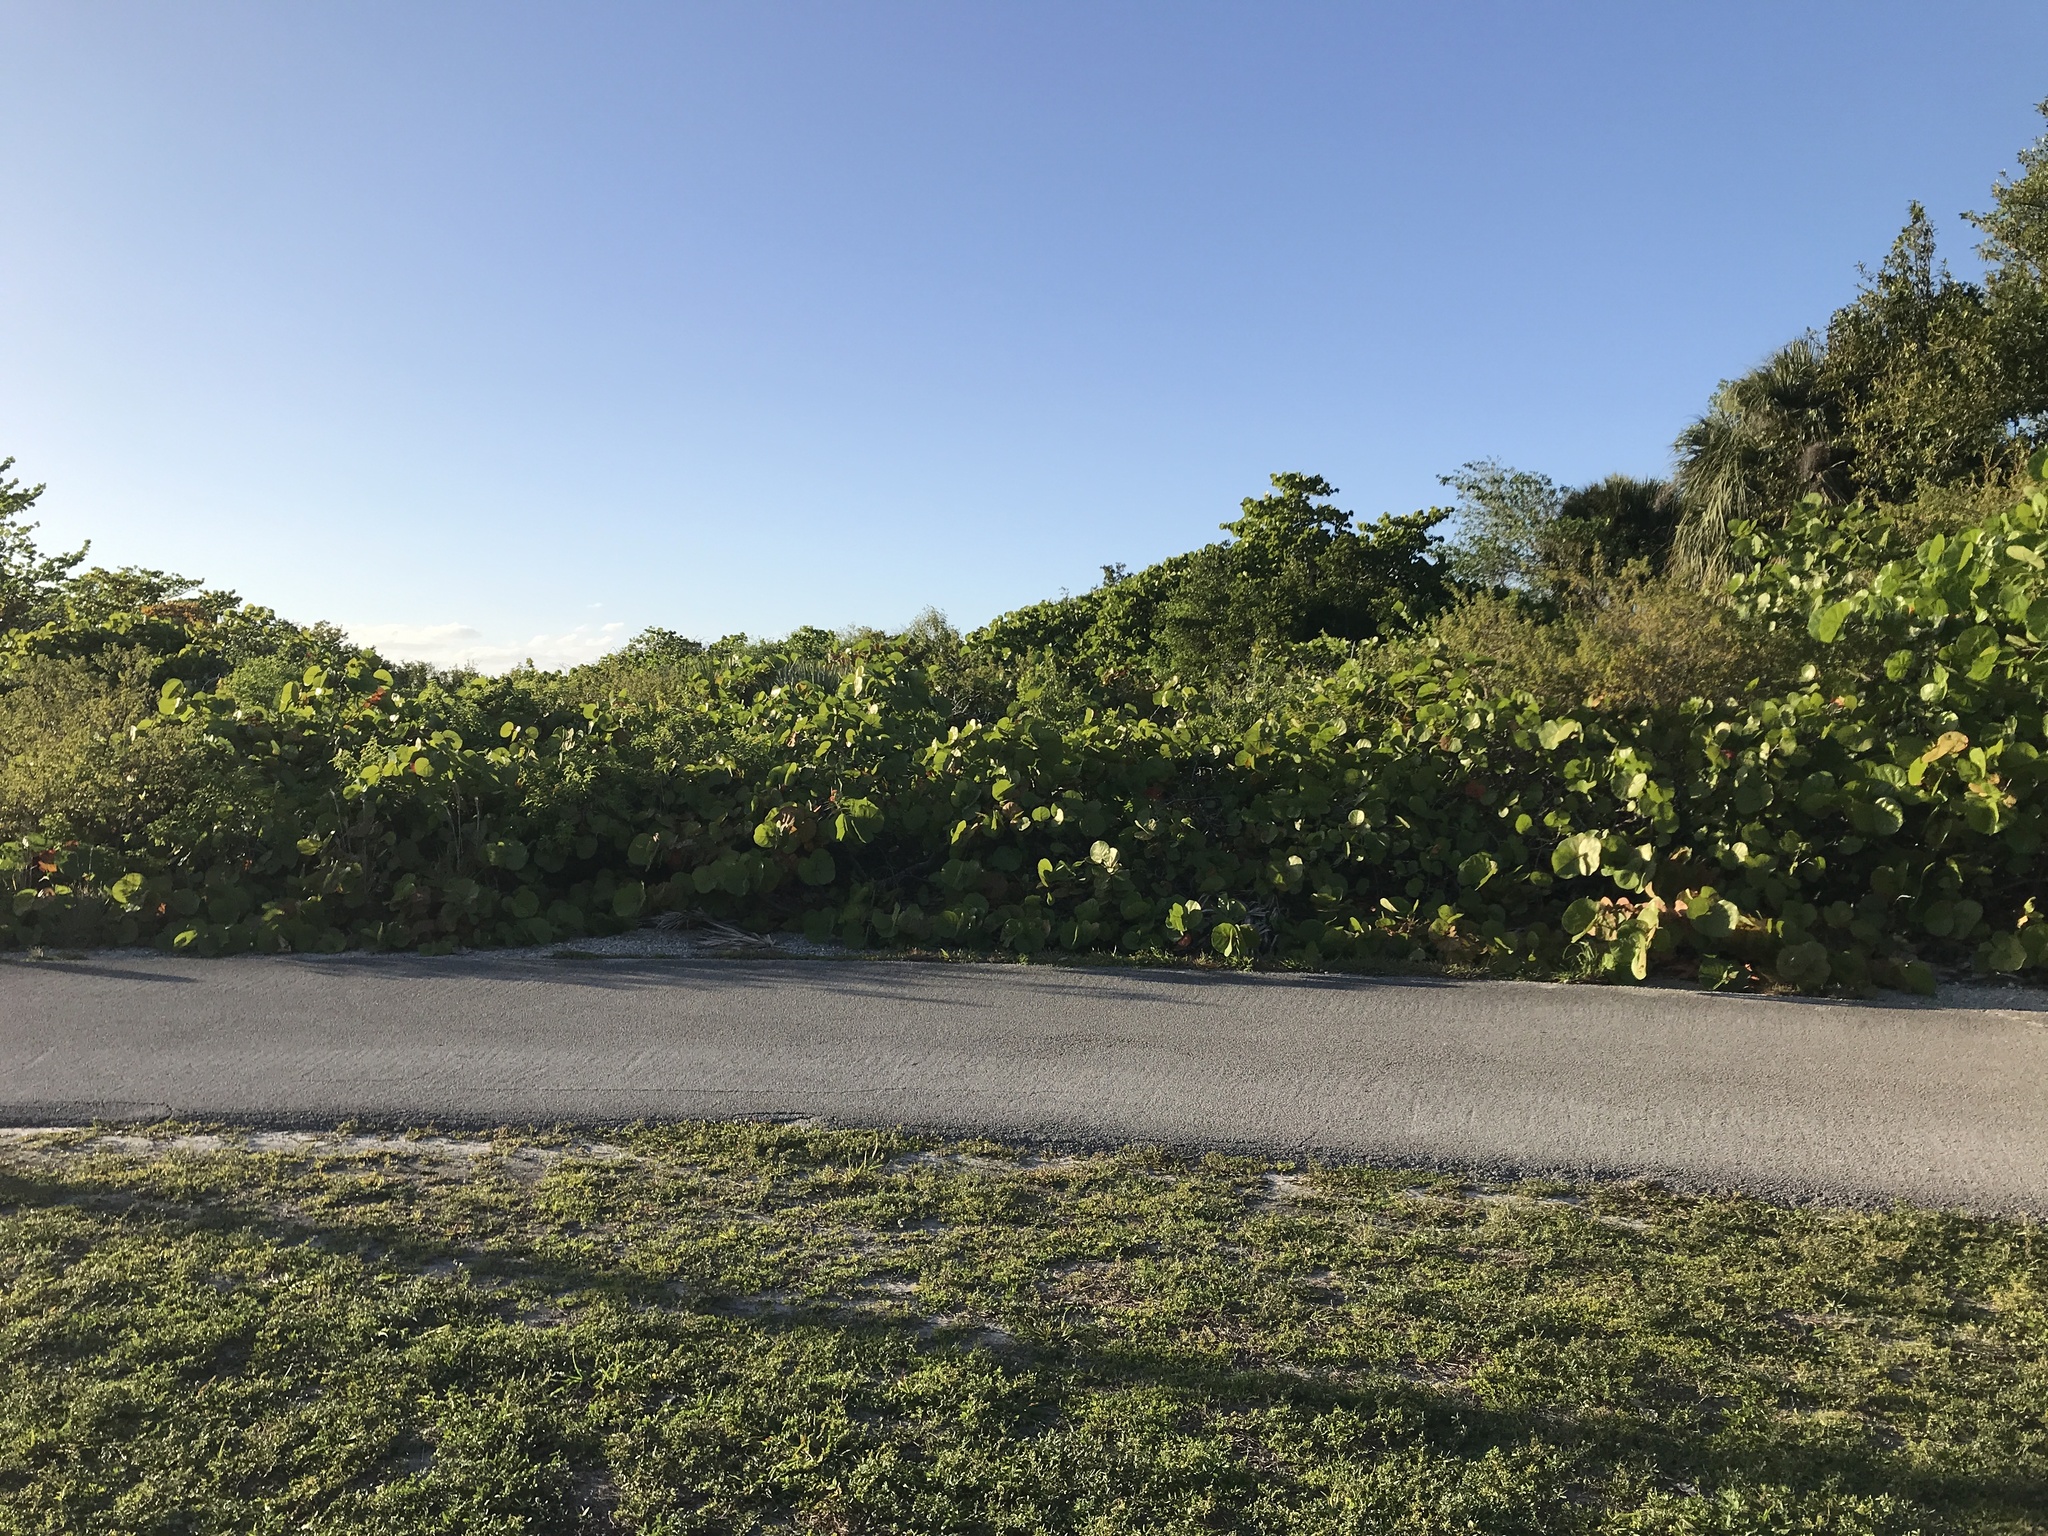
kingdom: Plantae
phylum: Tracheophyta
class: Magnoliopsida
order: Caryophyllales
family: Polygonaceae
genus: Coccoloba
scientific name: Coccoloba uvifera
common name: Seagrape
